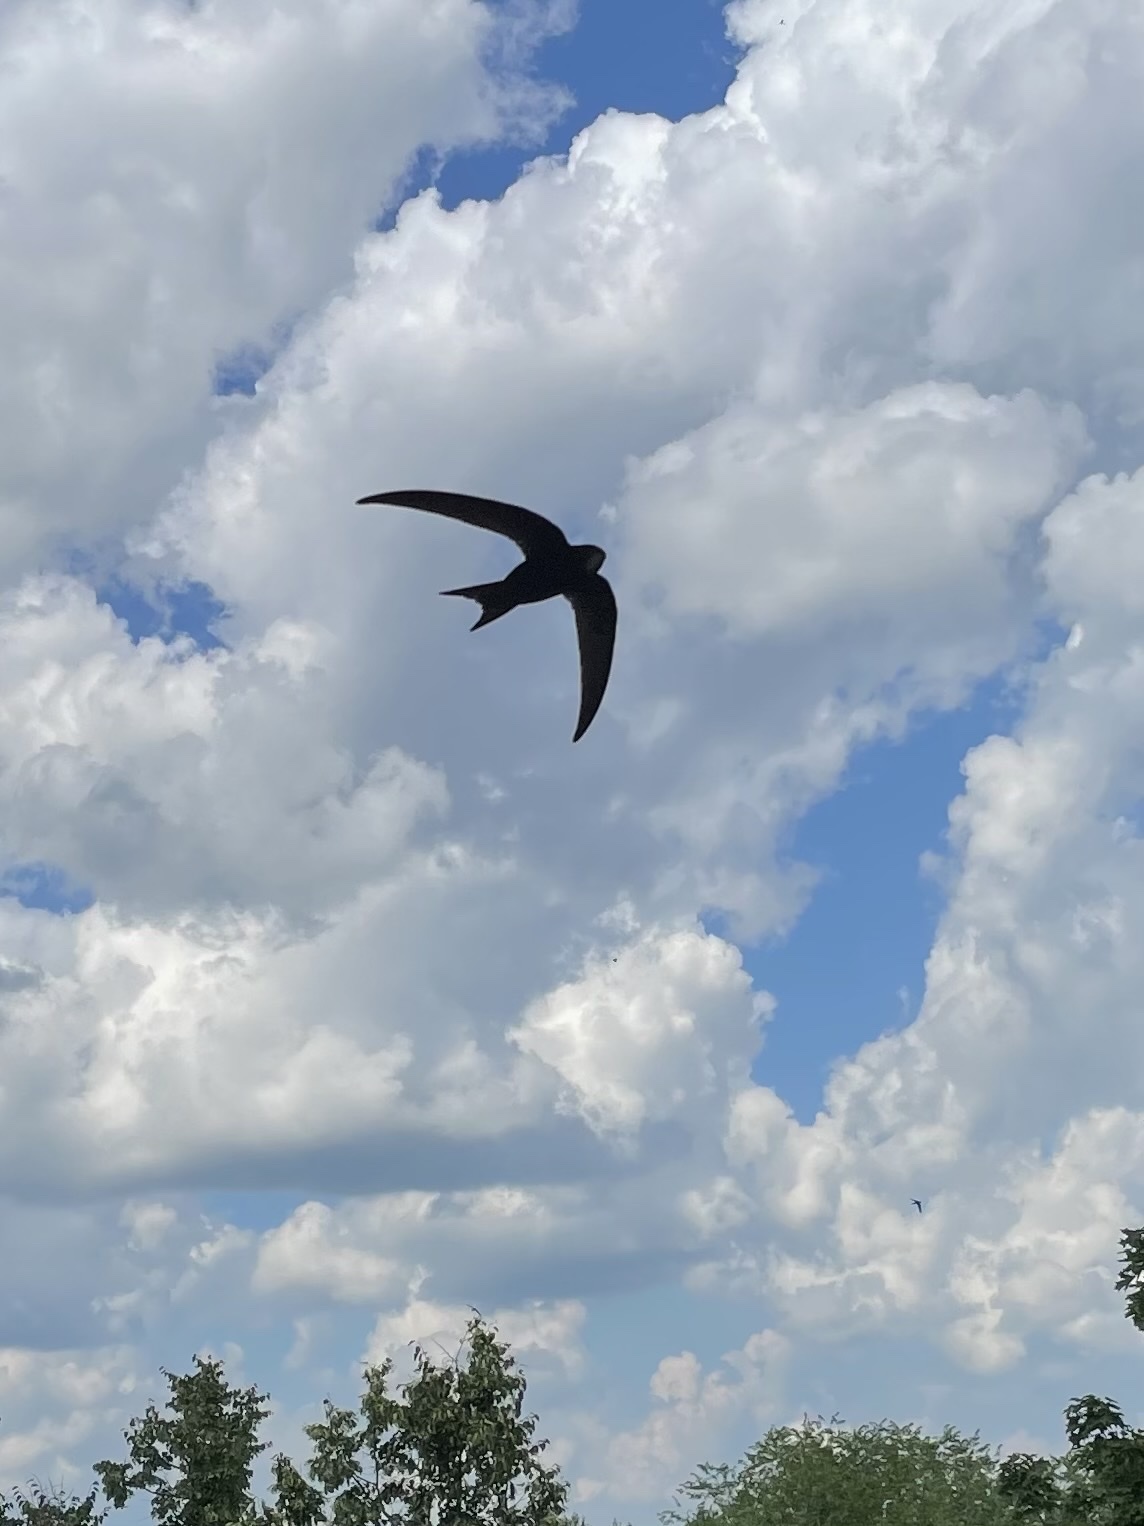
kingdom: Animalia
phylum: Chordata
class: Aves
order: Apodiformes
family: Apodidae
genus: Apus
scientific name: Apus apus
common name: Common swift
